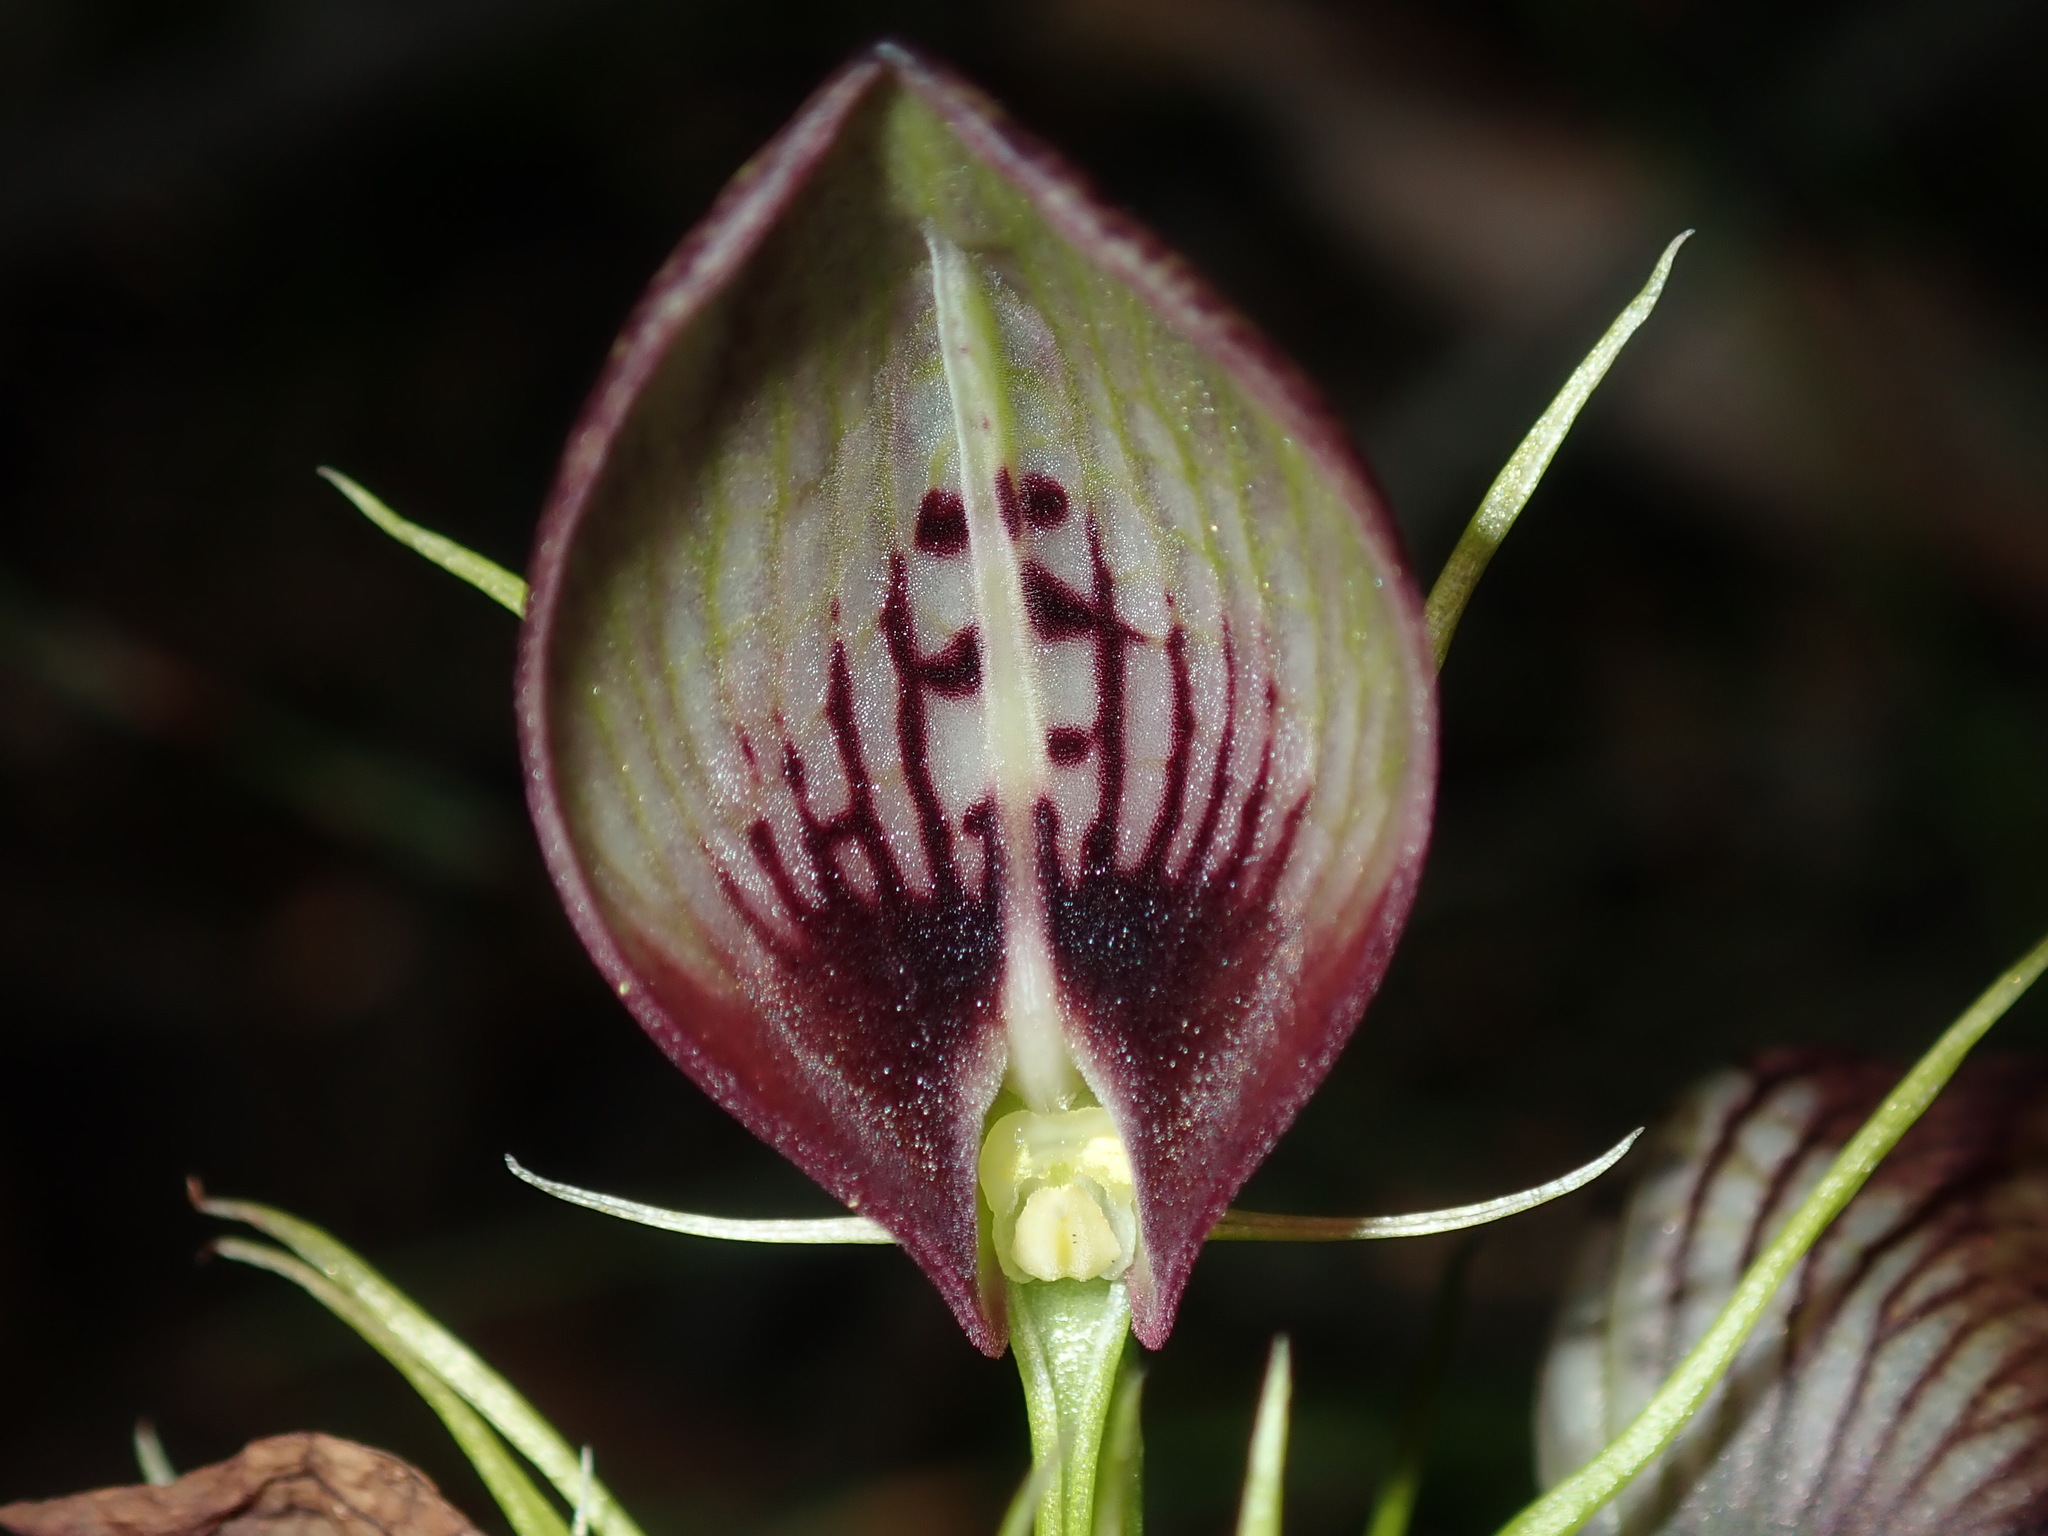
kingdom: Plantae
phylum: Tracheophyta
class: Liliopsida
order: Asparagales
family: Orchidaceae
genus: Cryptostylis
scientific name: Cryptostylis erecta
